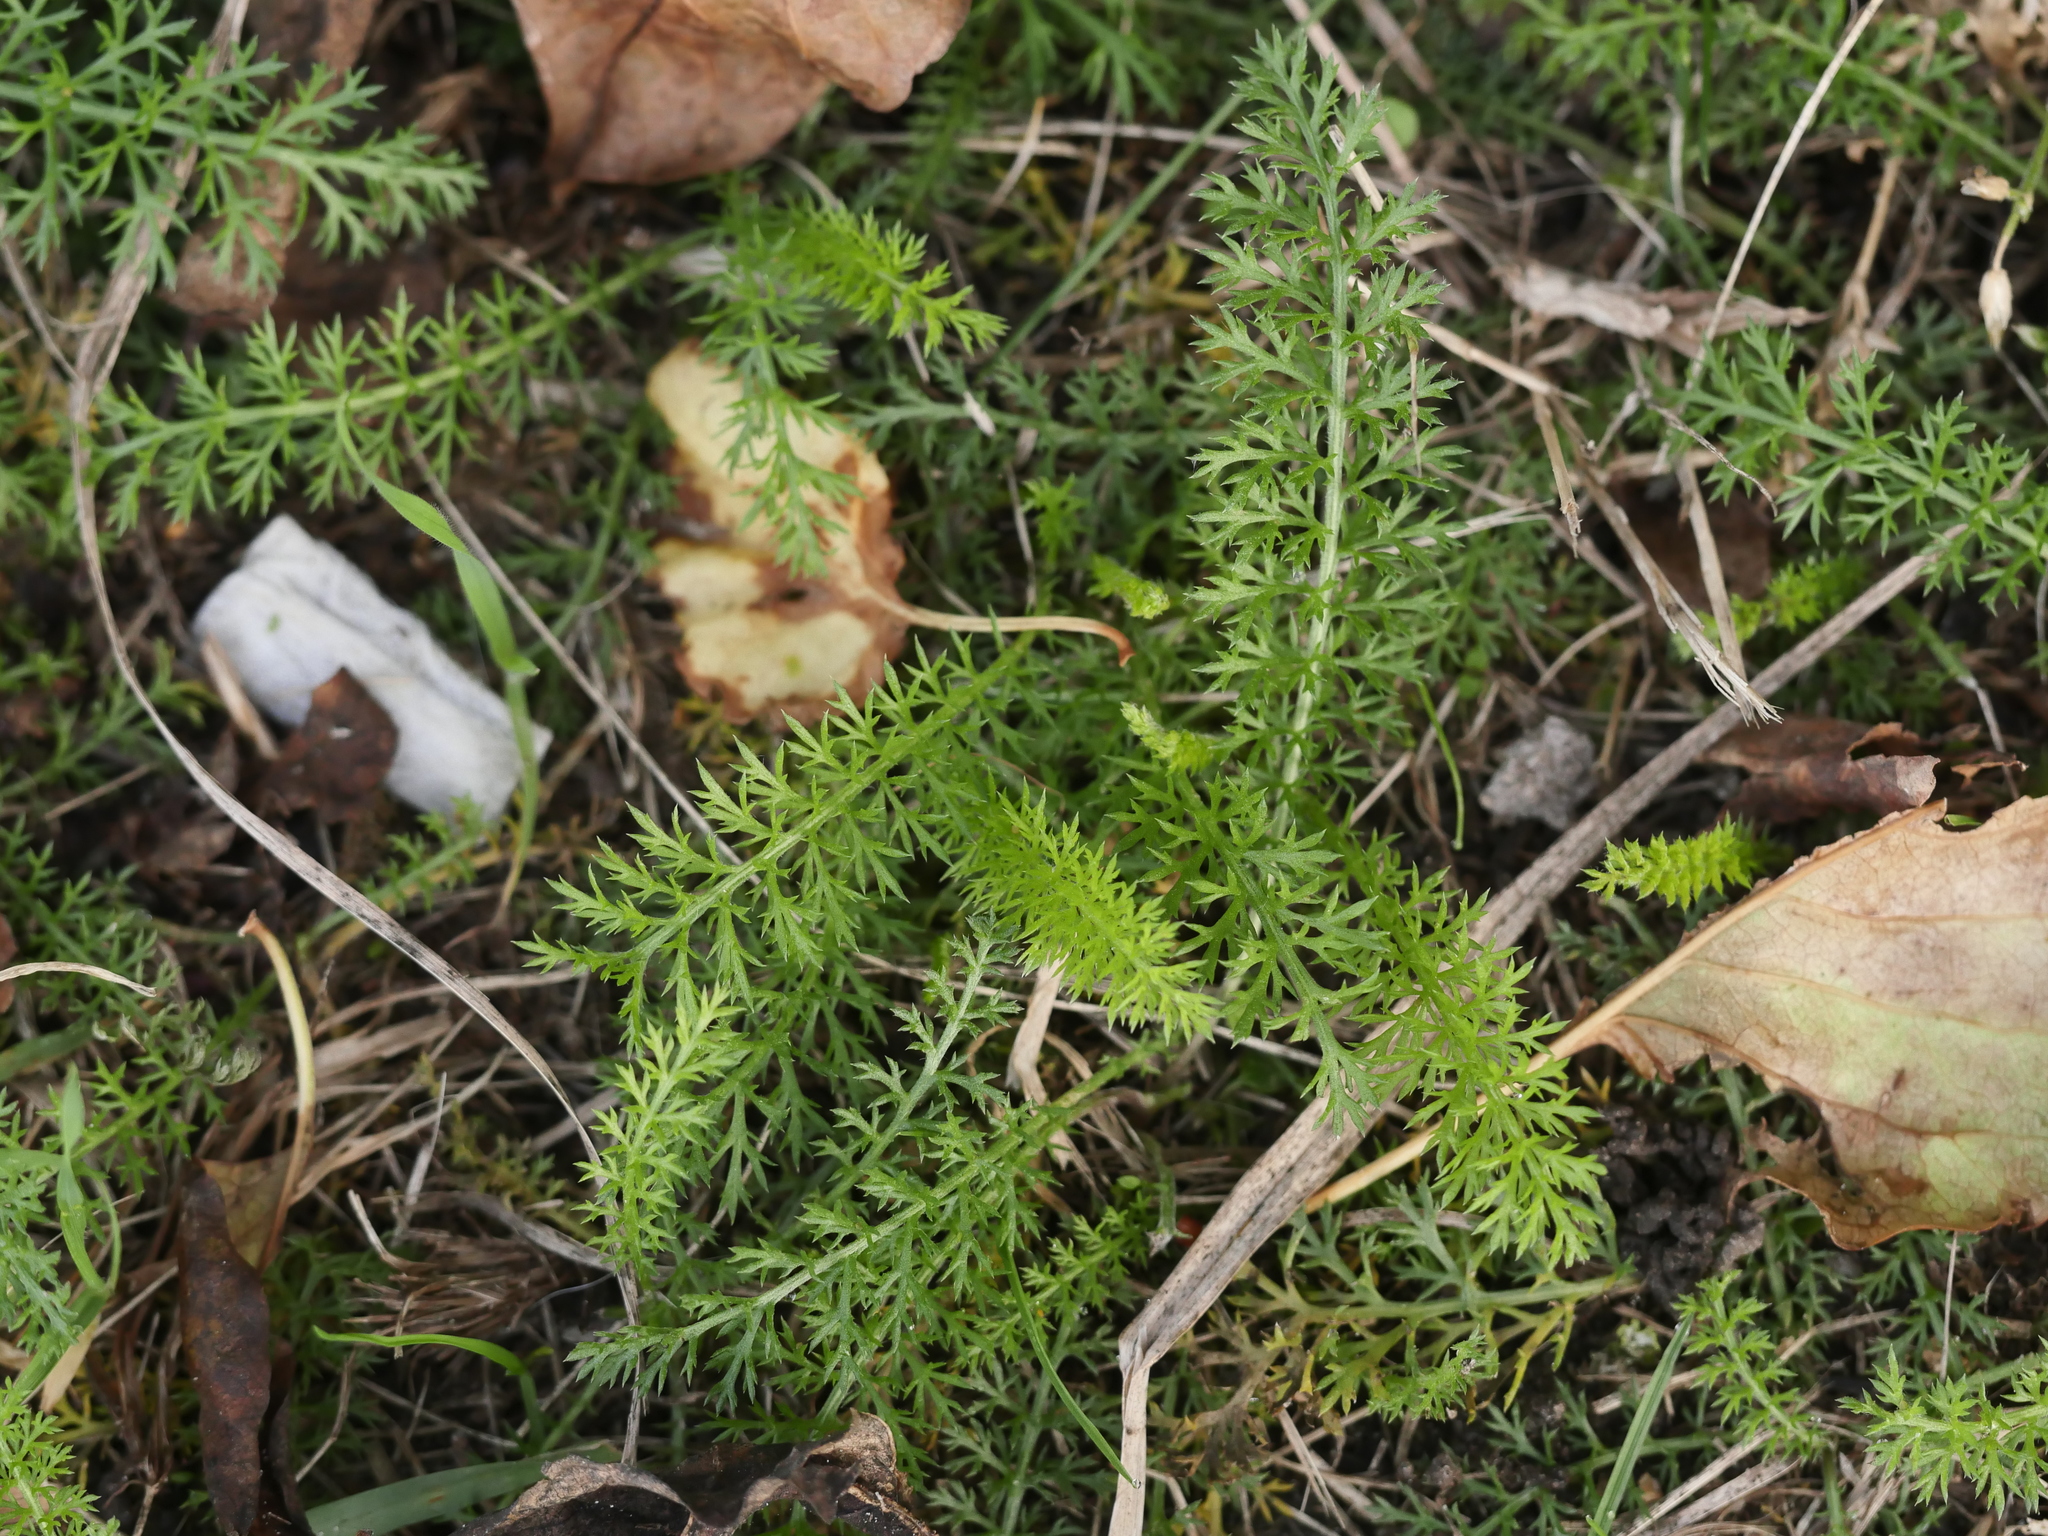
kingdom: Plantae
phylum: Tracheophyta
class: Magnoliopsida
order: Asterales
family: Asteraceae
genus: Achillea
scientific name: Achillea millefolium
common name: Yarrow
